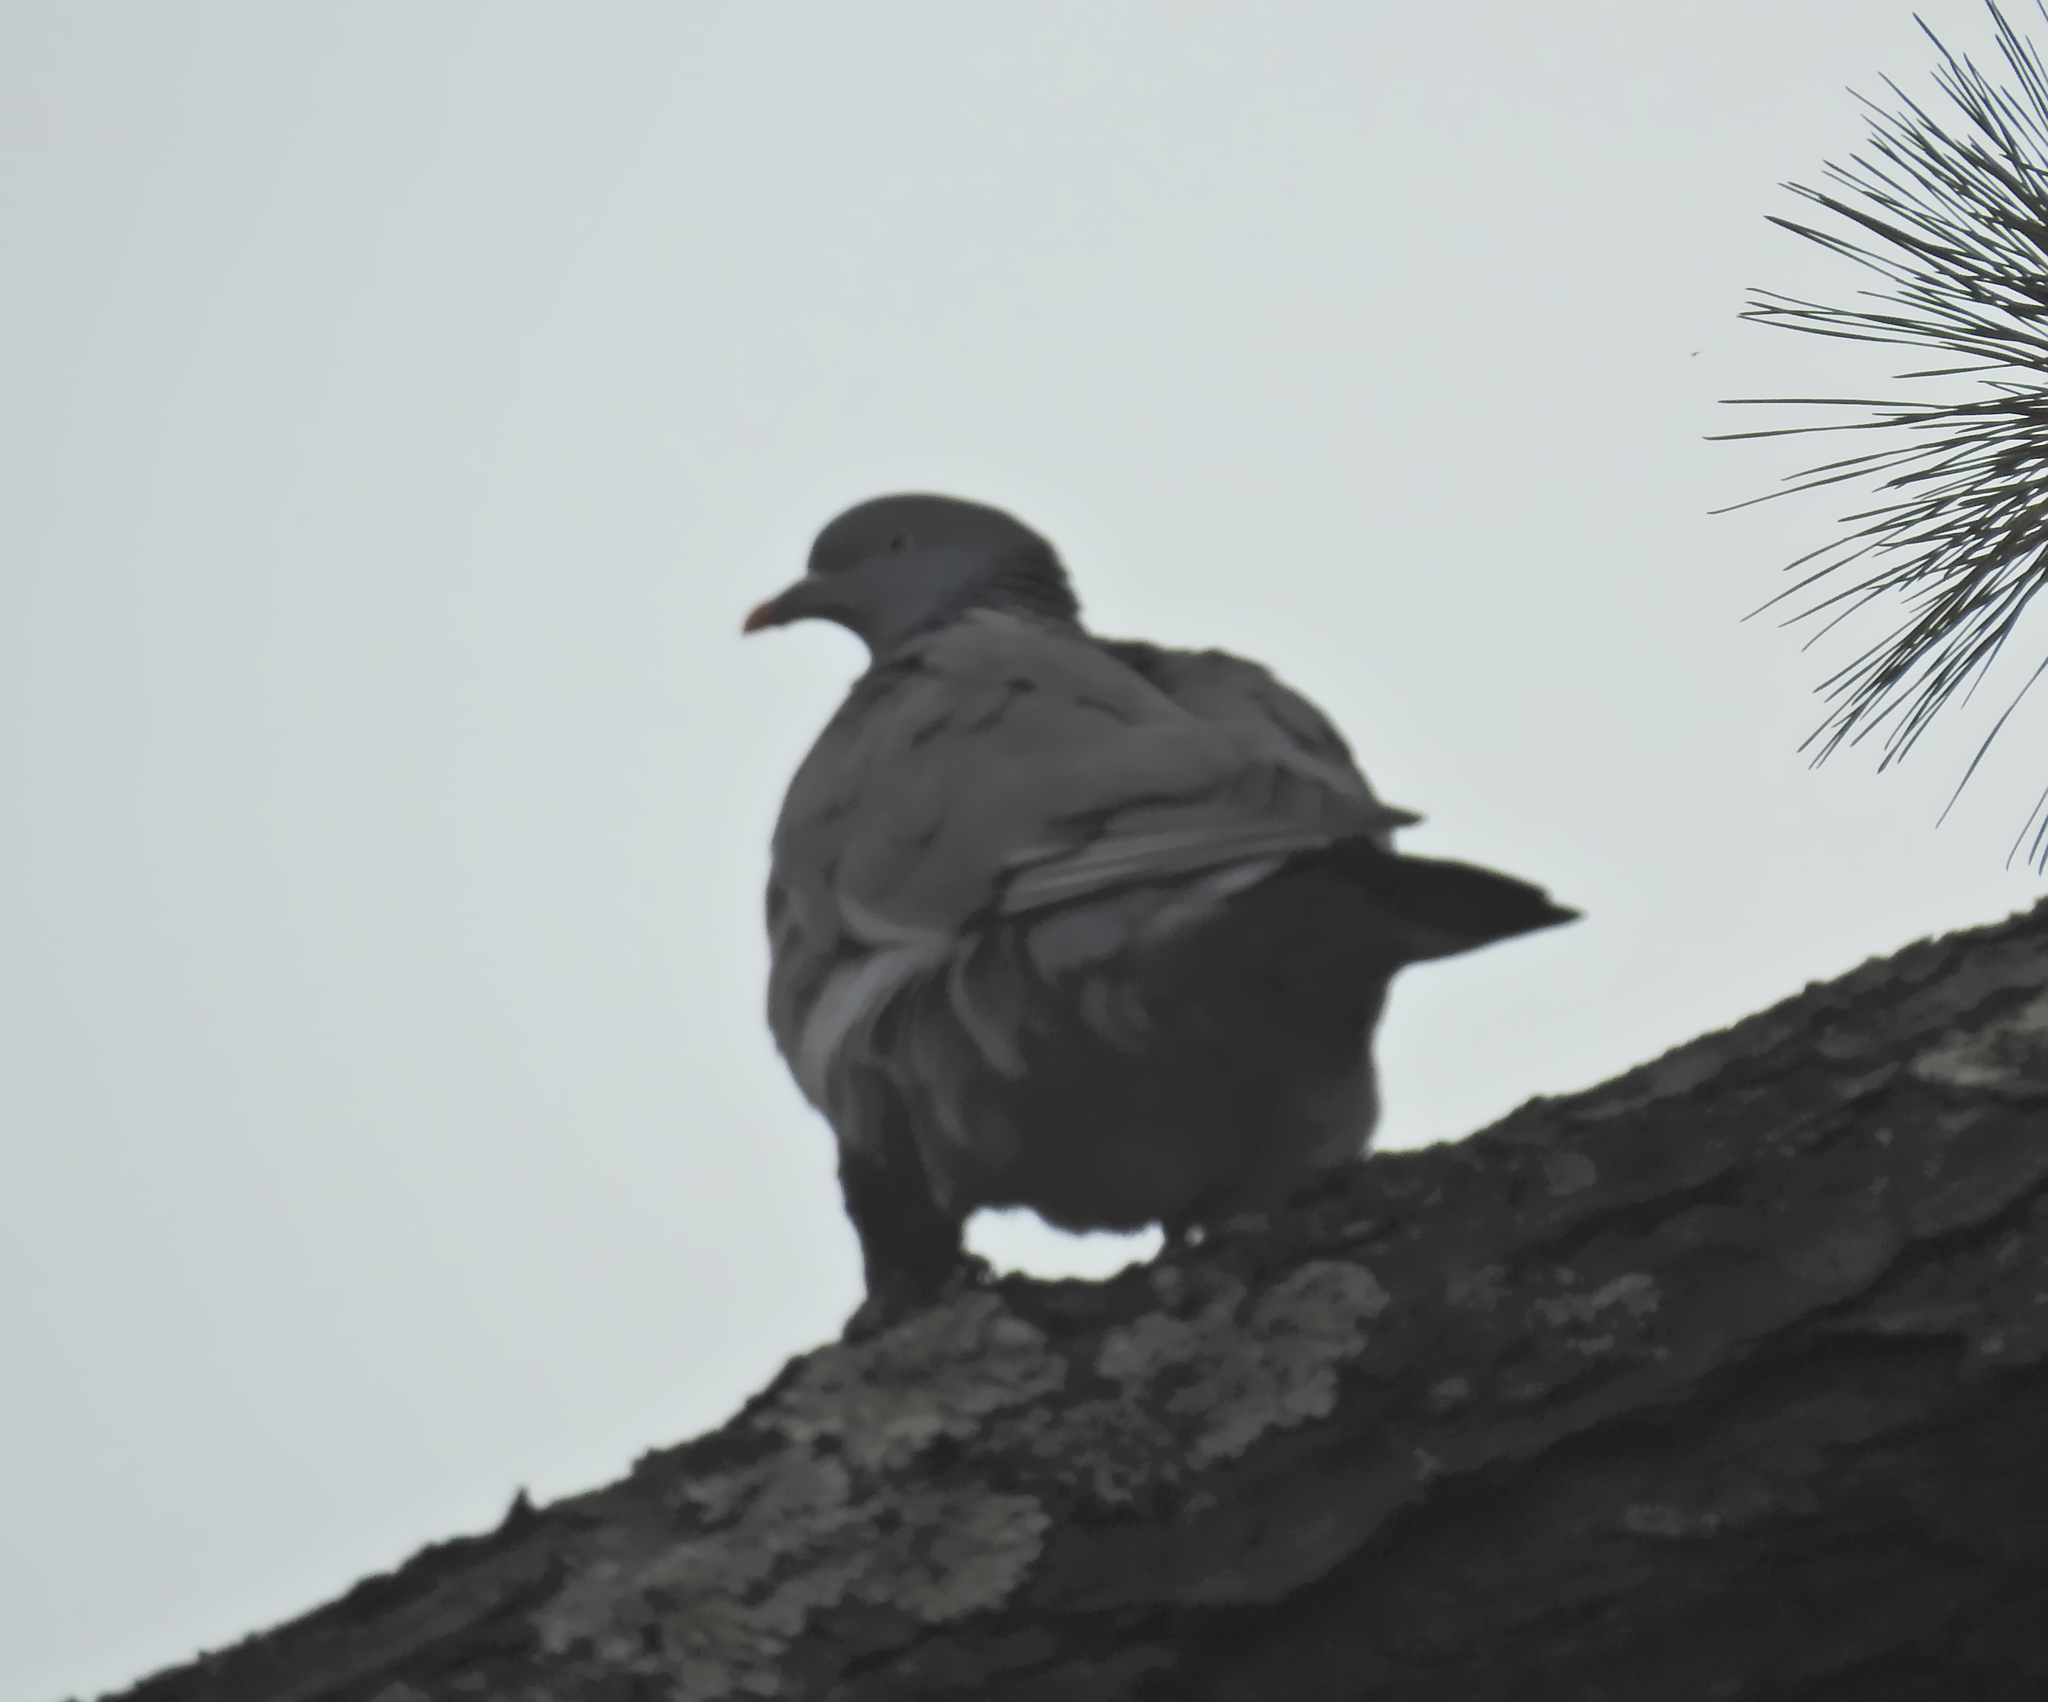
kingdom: Animalia
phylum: Chordata
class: Aves
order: Columbiformes
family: Columbidae
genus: Columba
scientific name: Columba palumbus
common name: Common wood pigeon
